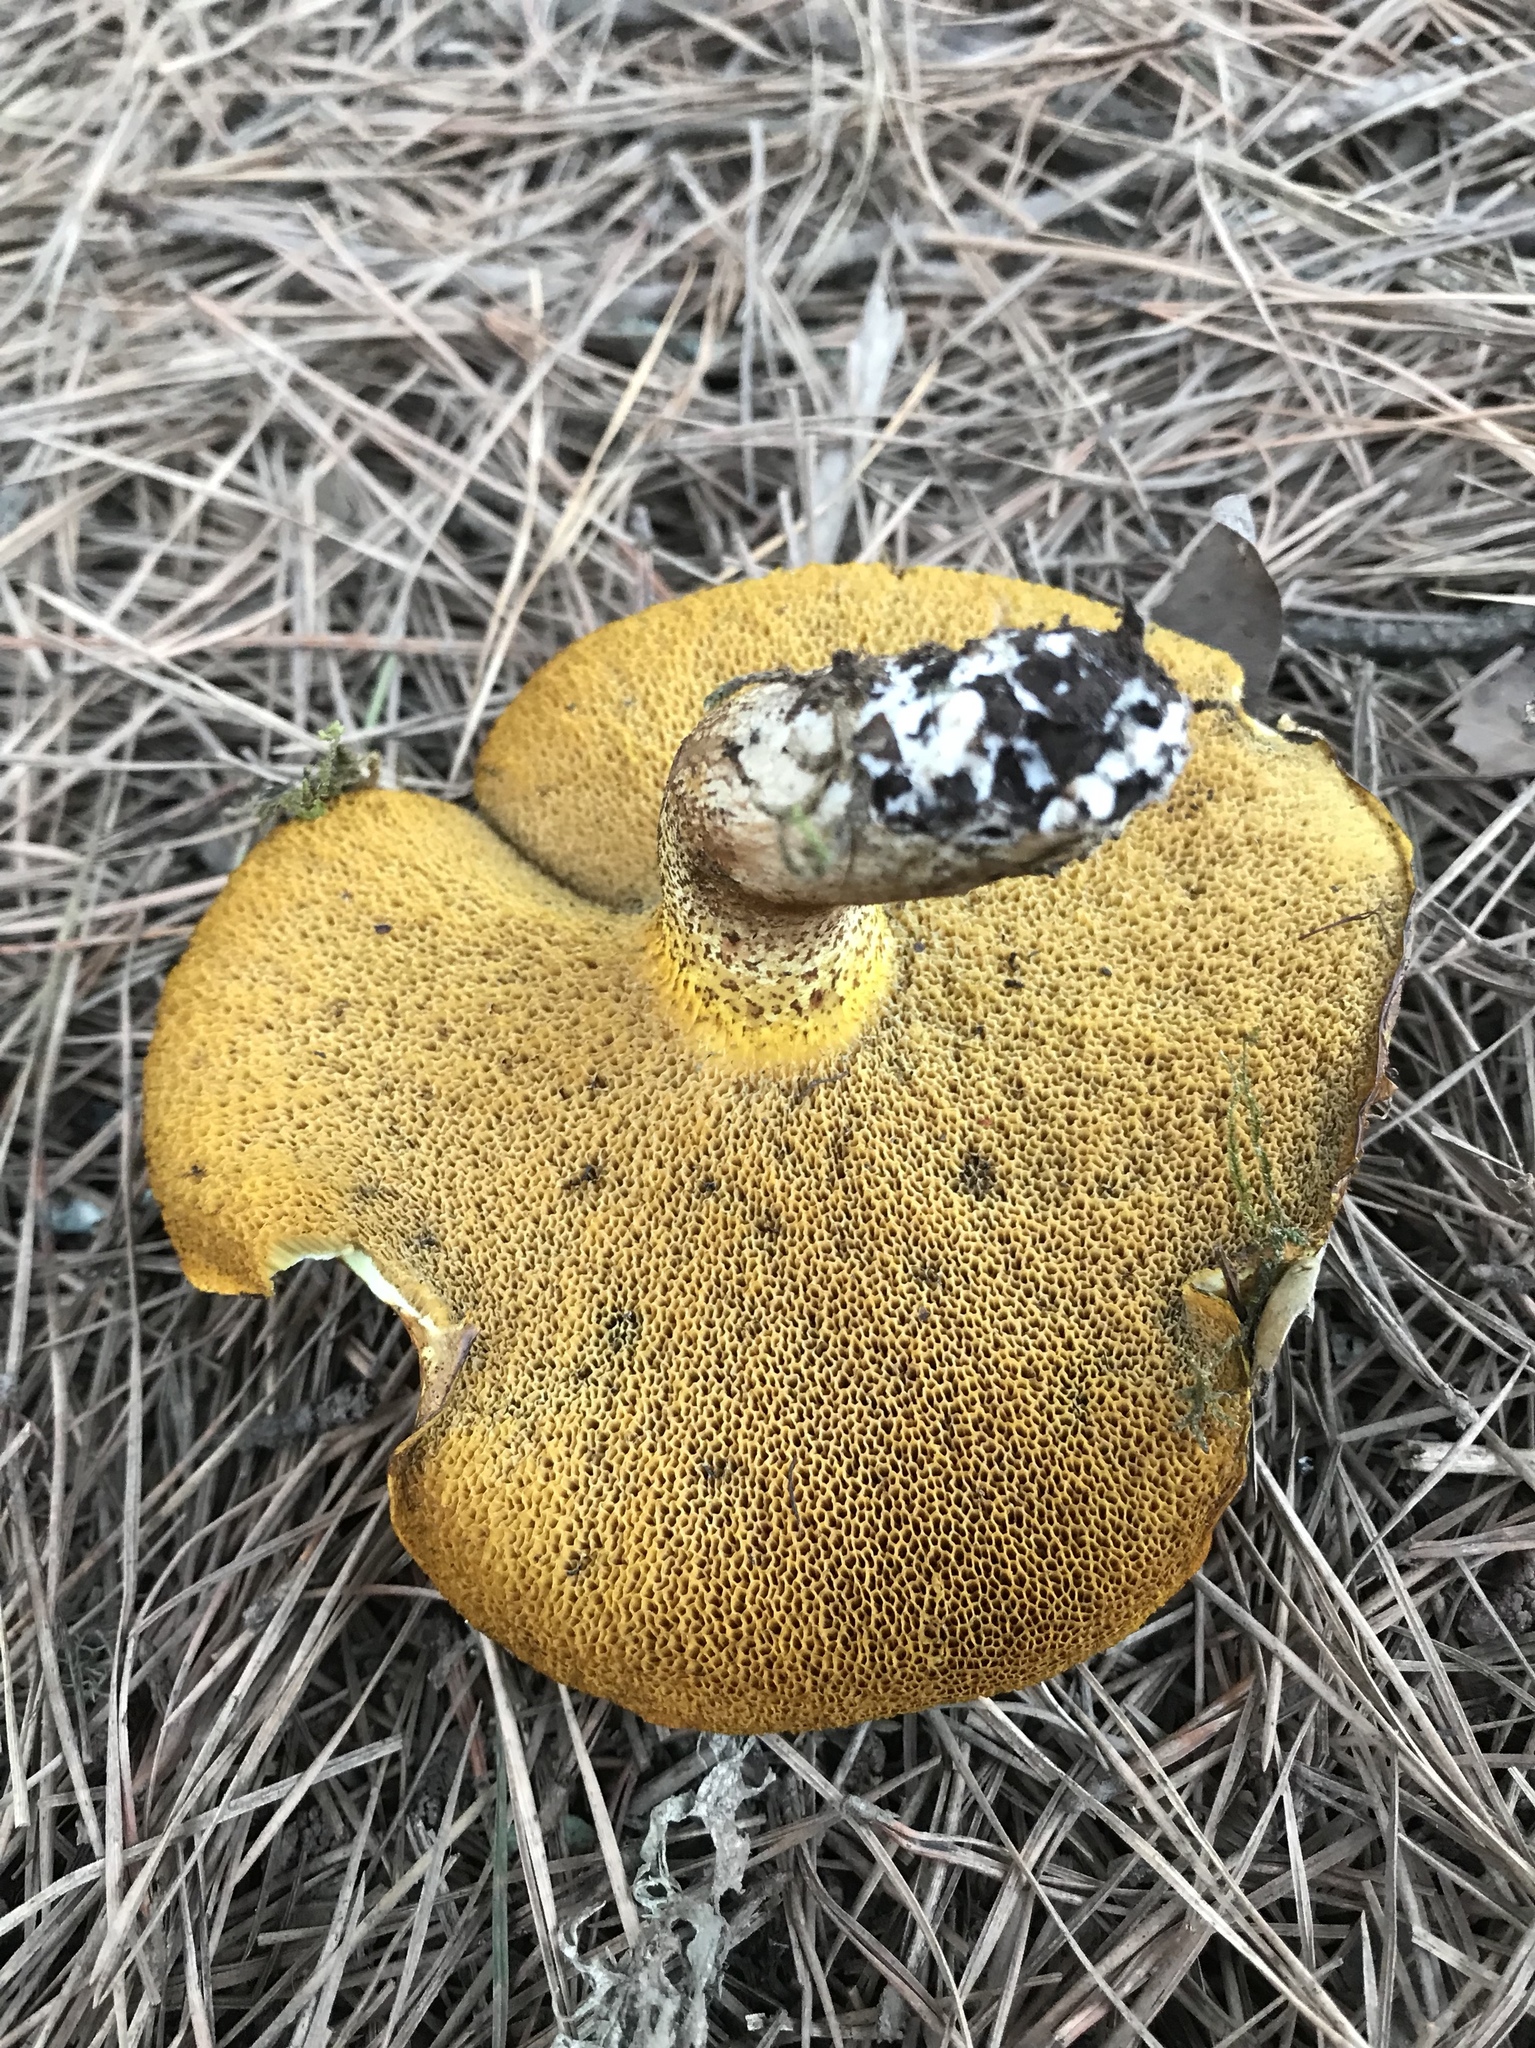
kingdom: Fungi
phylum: Basidiomycota
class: Agaricomycetes
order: Boletales
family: Suillaceae
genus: Suillus
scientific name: Suillus pungens
